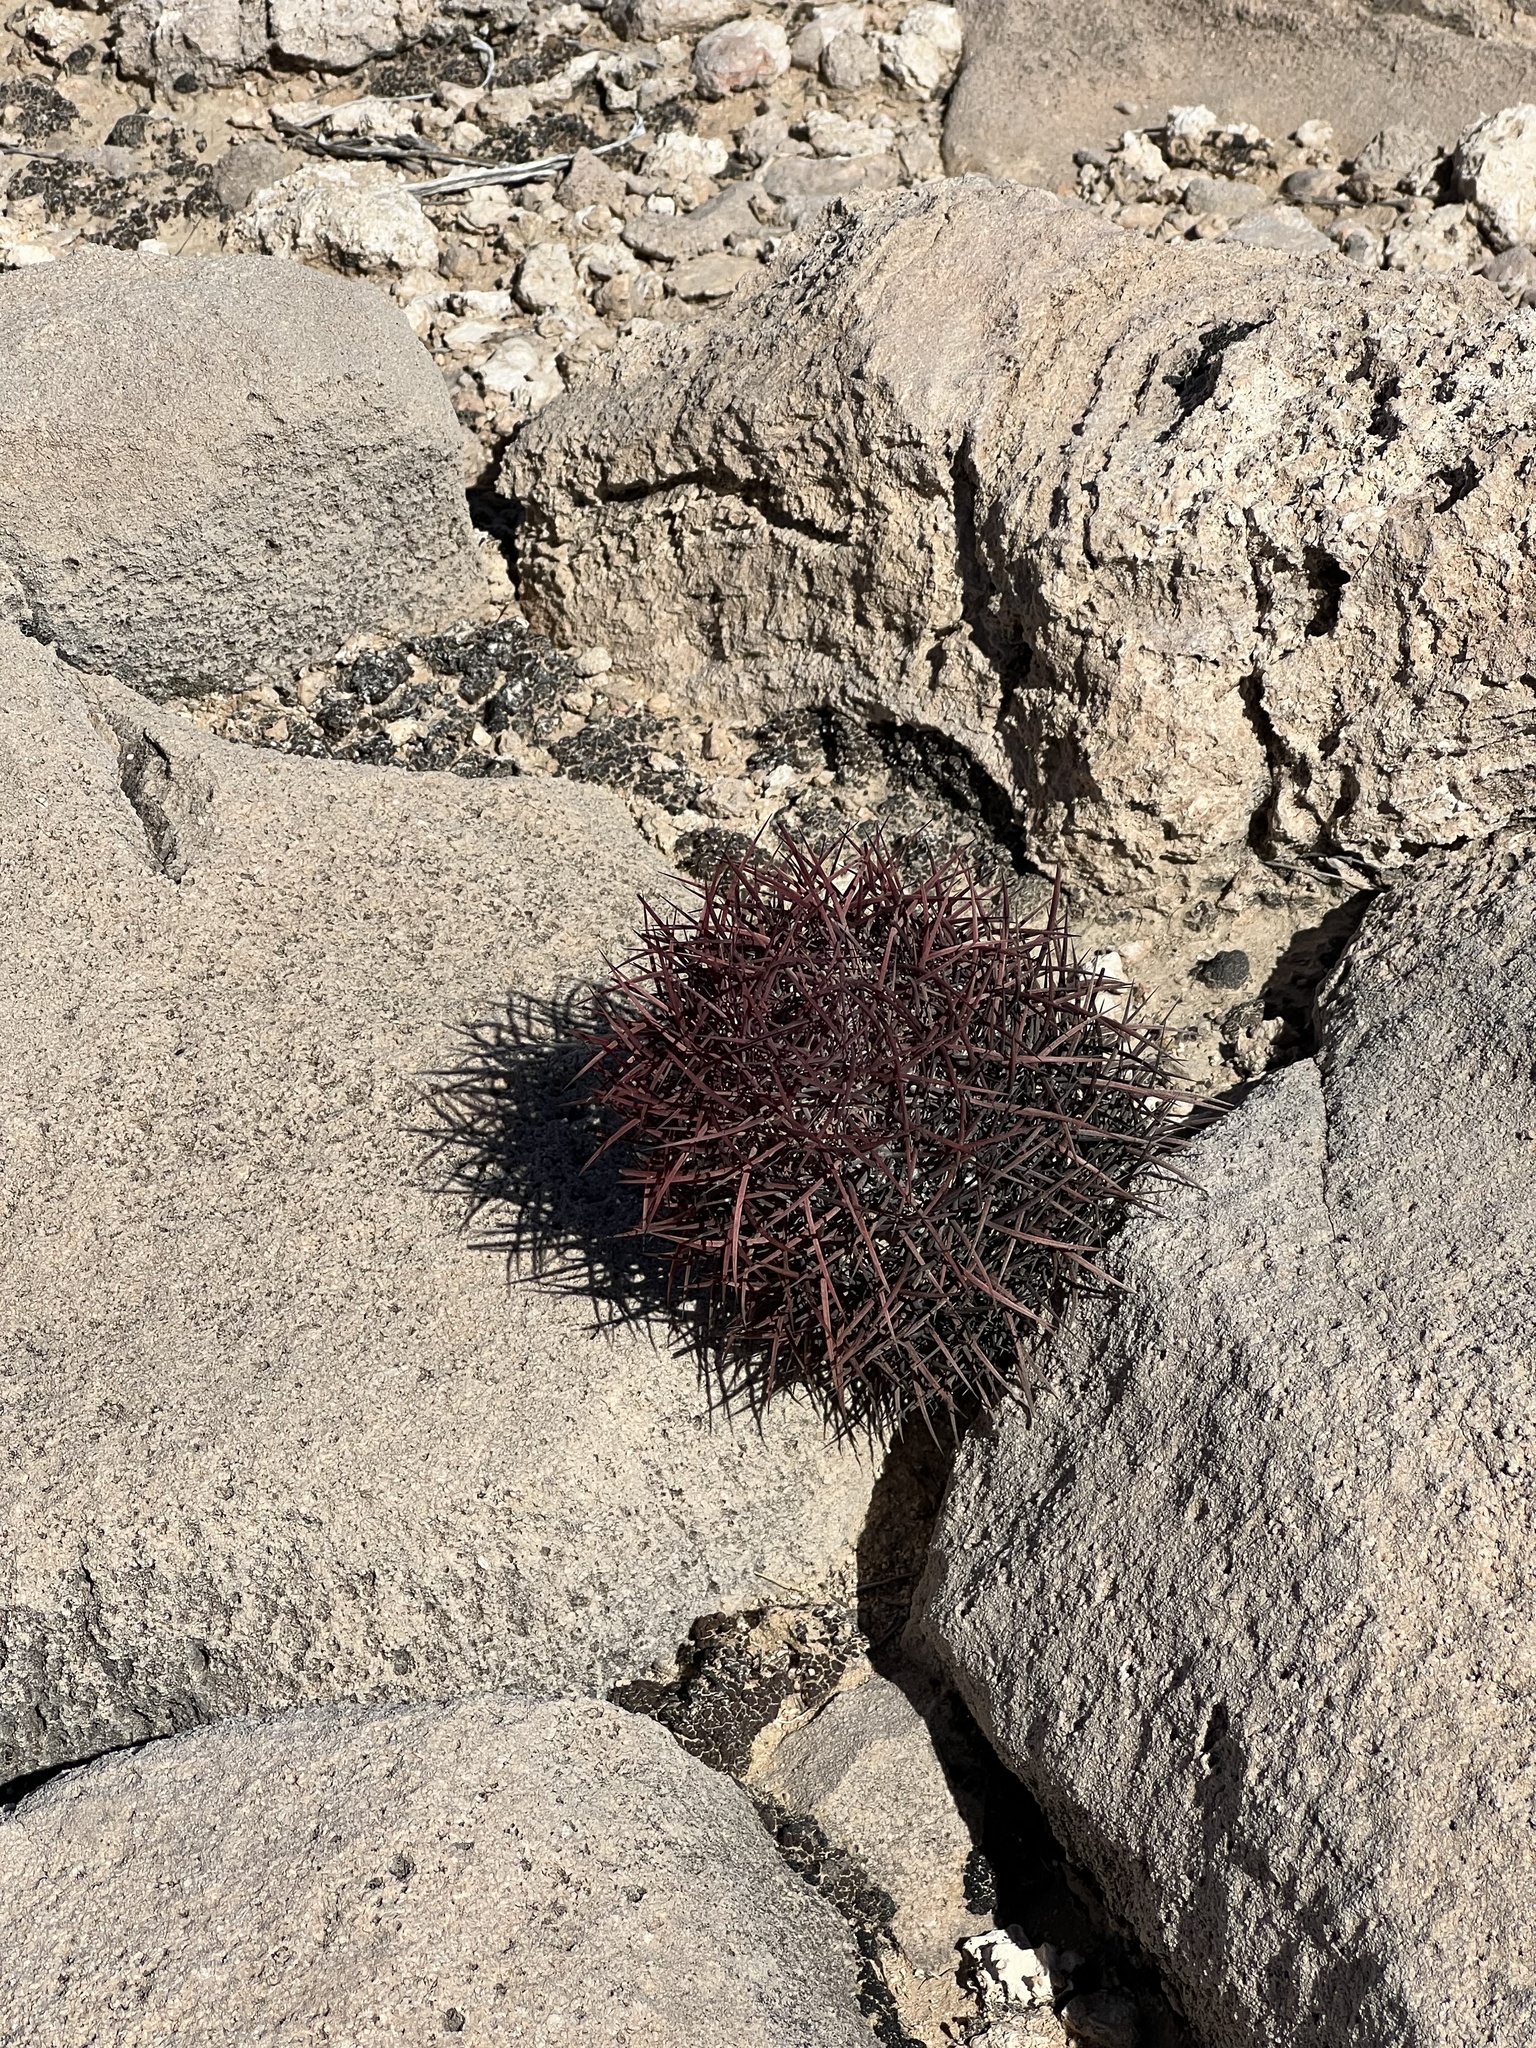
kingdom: Plantae
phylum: Tracheophyta
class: Magnoliopsida
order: Caryophyllales
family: Cactaceae
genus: Sclerocactus
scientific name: Sclerocactus johnsonii
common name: Eight-spine fishhook cactus
